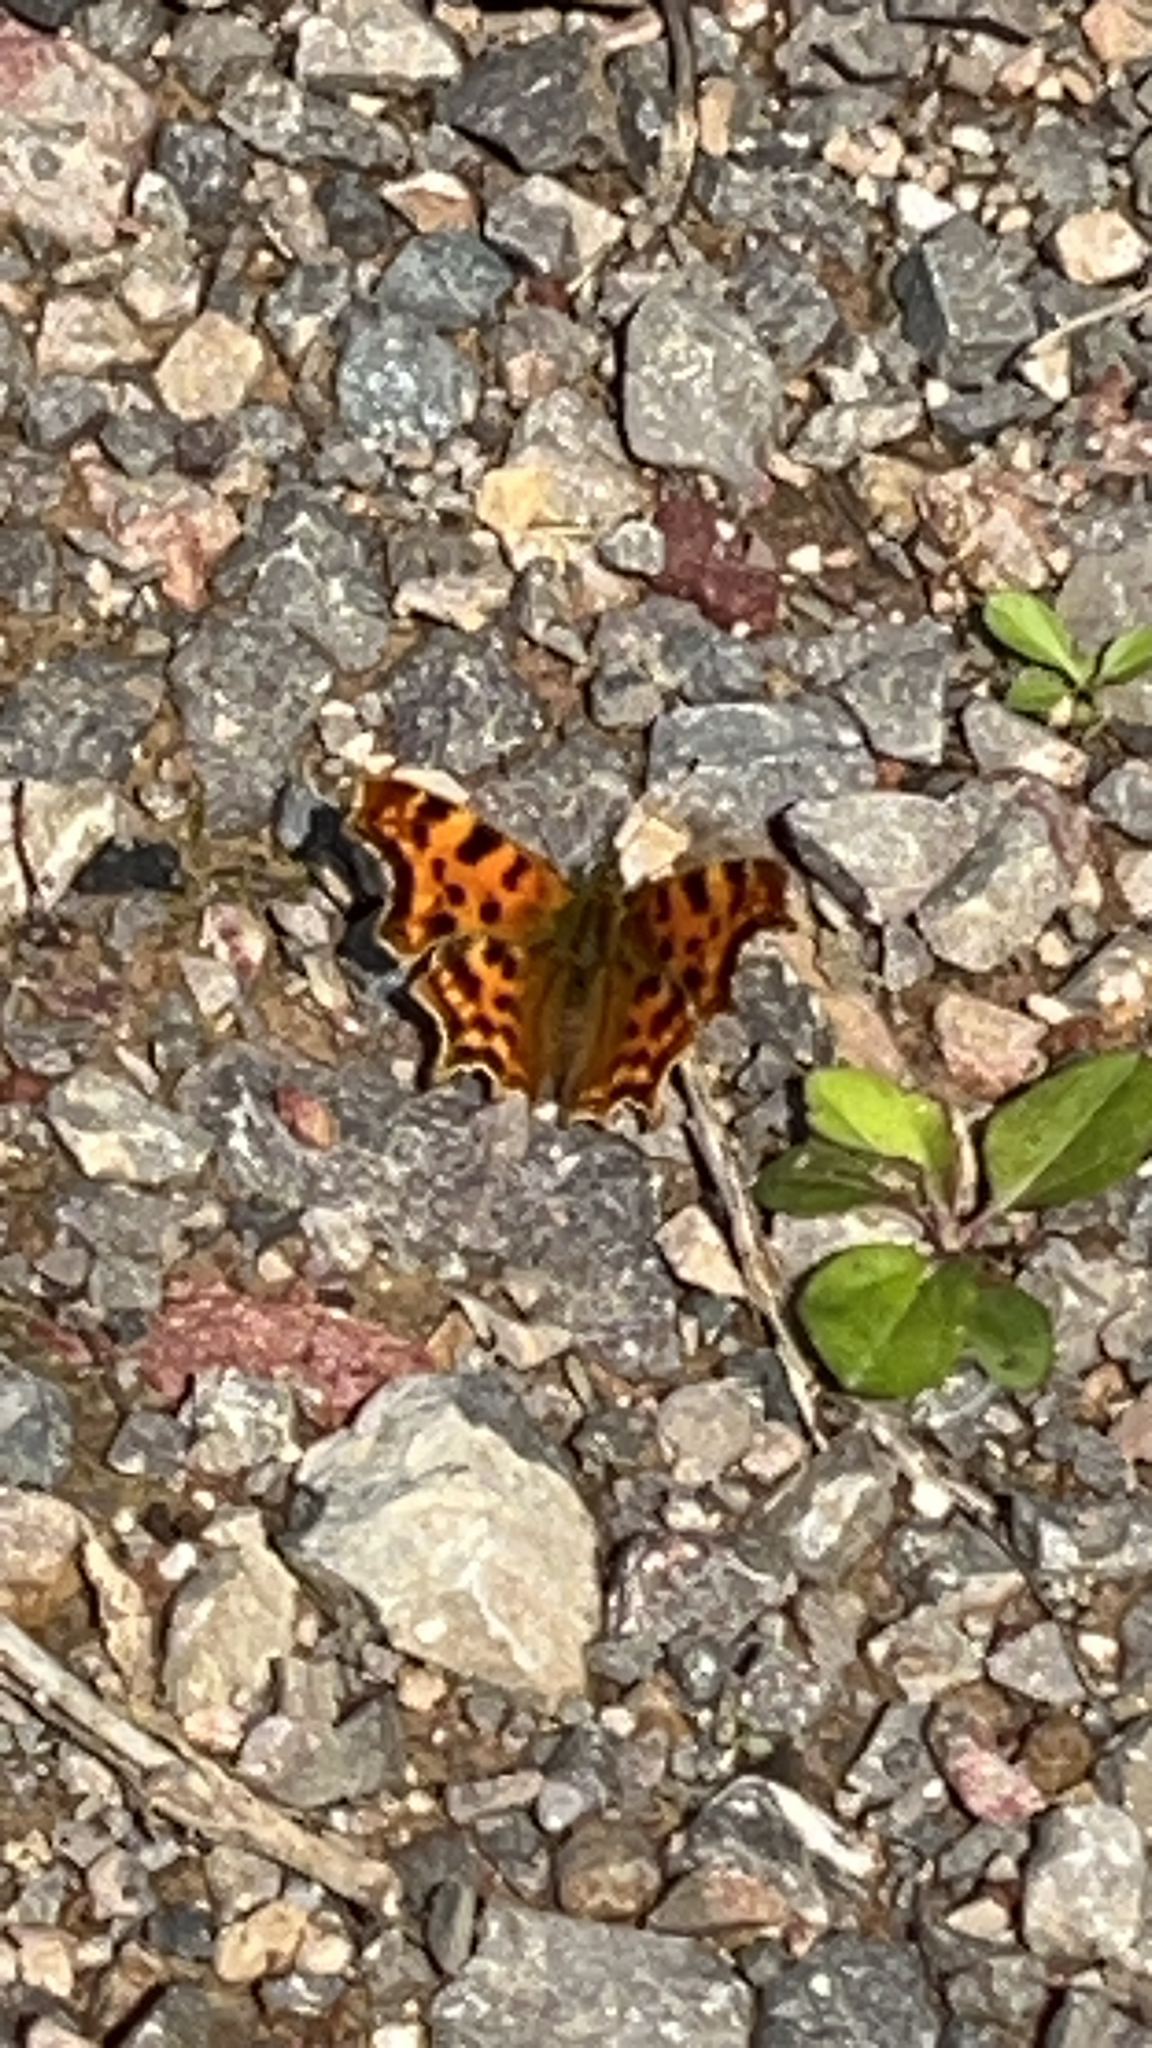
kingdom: Animalia
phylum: Arthropoda
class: Insecta
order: Lepidoptera
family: Nymphalidae
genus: Polygonia
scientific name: Polygonia c-album
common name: Comma
